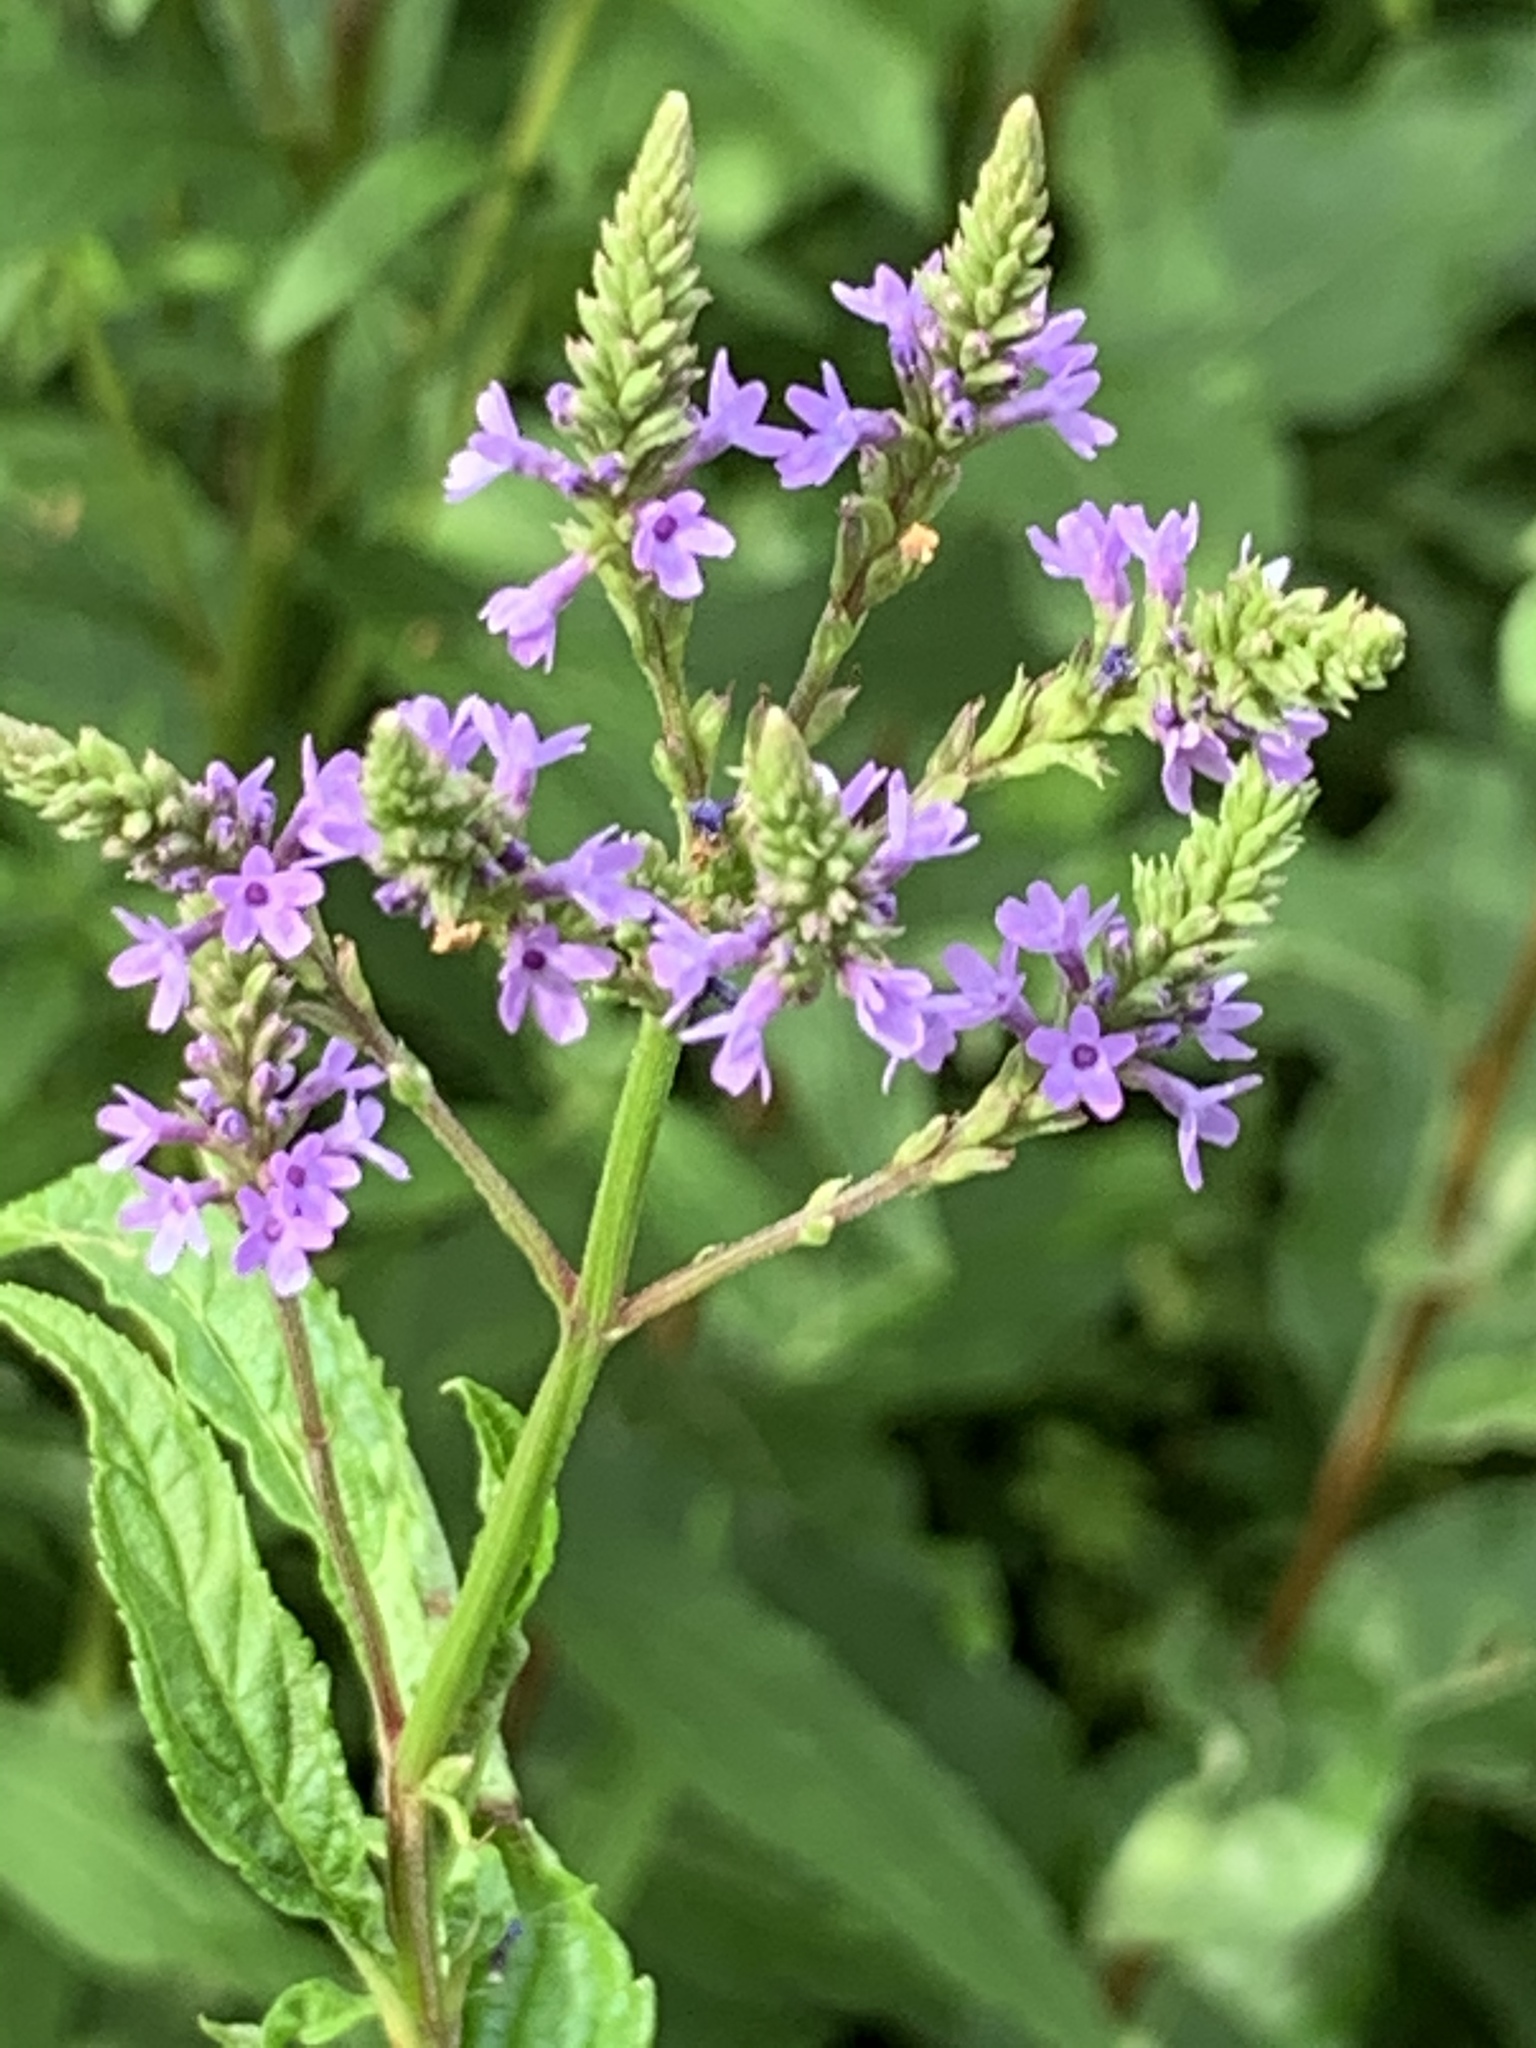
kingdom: Plantae
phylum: Tracheophyta
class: Magnoliopsida
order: Lamiales
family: Verbenaceae
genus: Verbena
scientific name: Verbena hastata
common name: American blue vervain
